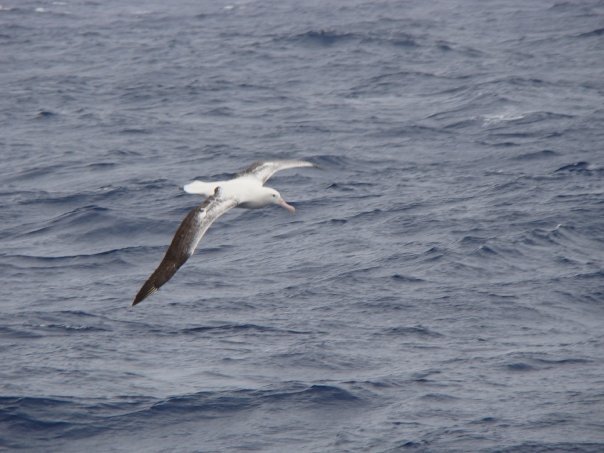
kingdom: Animalia
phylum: Chordata
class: Aves
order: Procellariiformes
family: Diomedeidae
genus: Diomedea
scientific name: Diomedea epomophora
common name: Southern royal albatross
